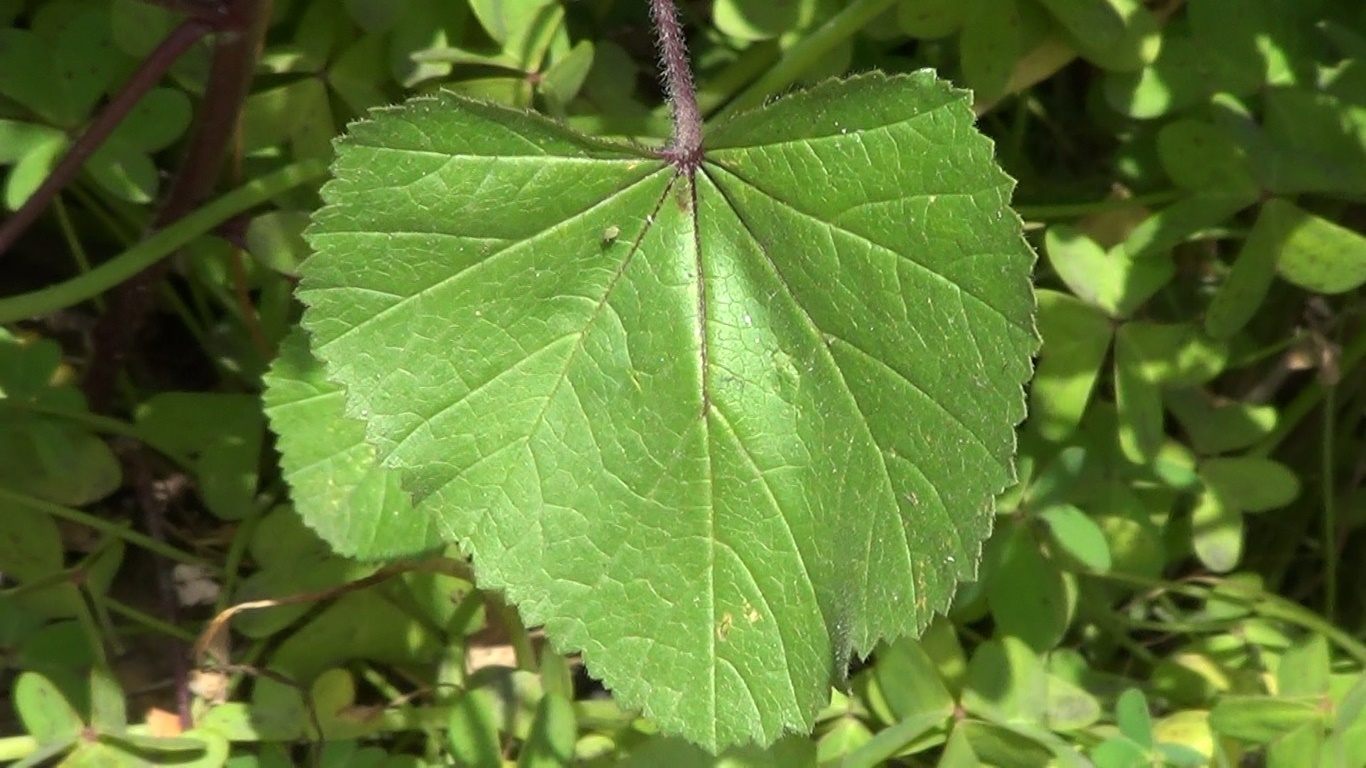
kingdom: Plantae
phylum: Tracheophyta
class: Magnoliopsida
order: Malvales
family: Malvaceae
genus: Malva
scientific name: Malva trimestris
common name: Royal mallow
